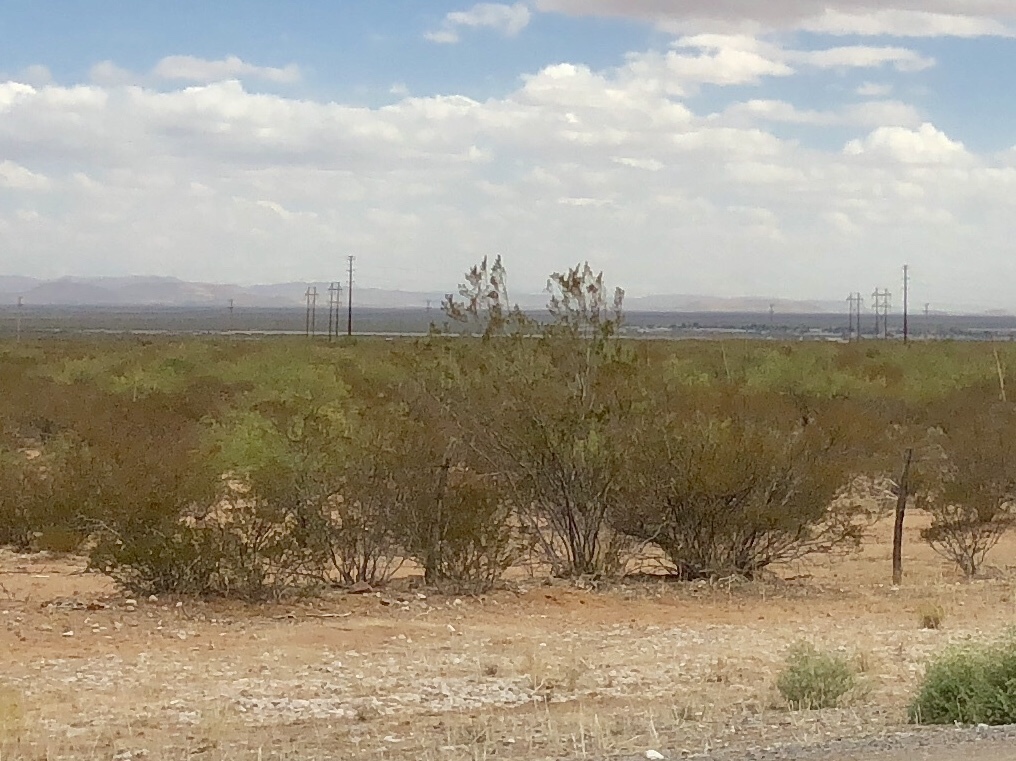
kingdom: Plantae
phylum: Tracheophyta
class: Magnoliopsida
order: Zygophyllales
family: Zygophyllaceae
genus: Larrea
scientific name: Larrea tridentata
